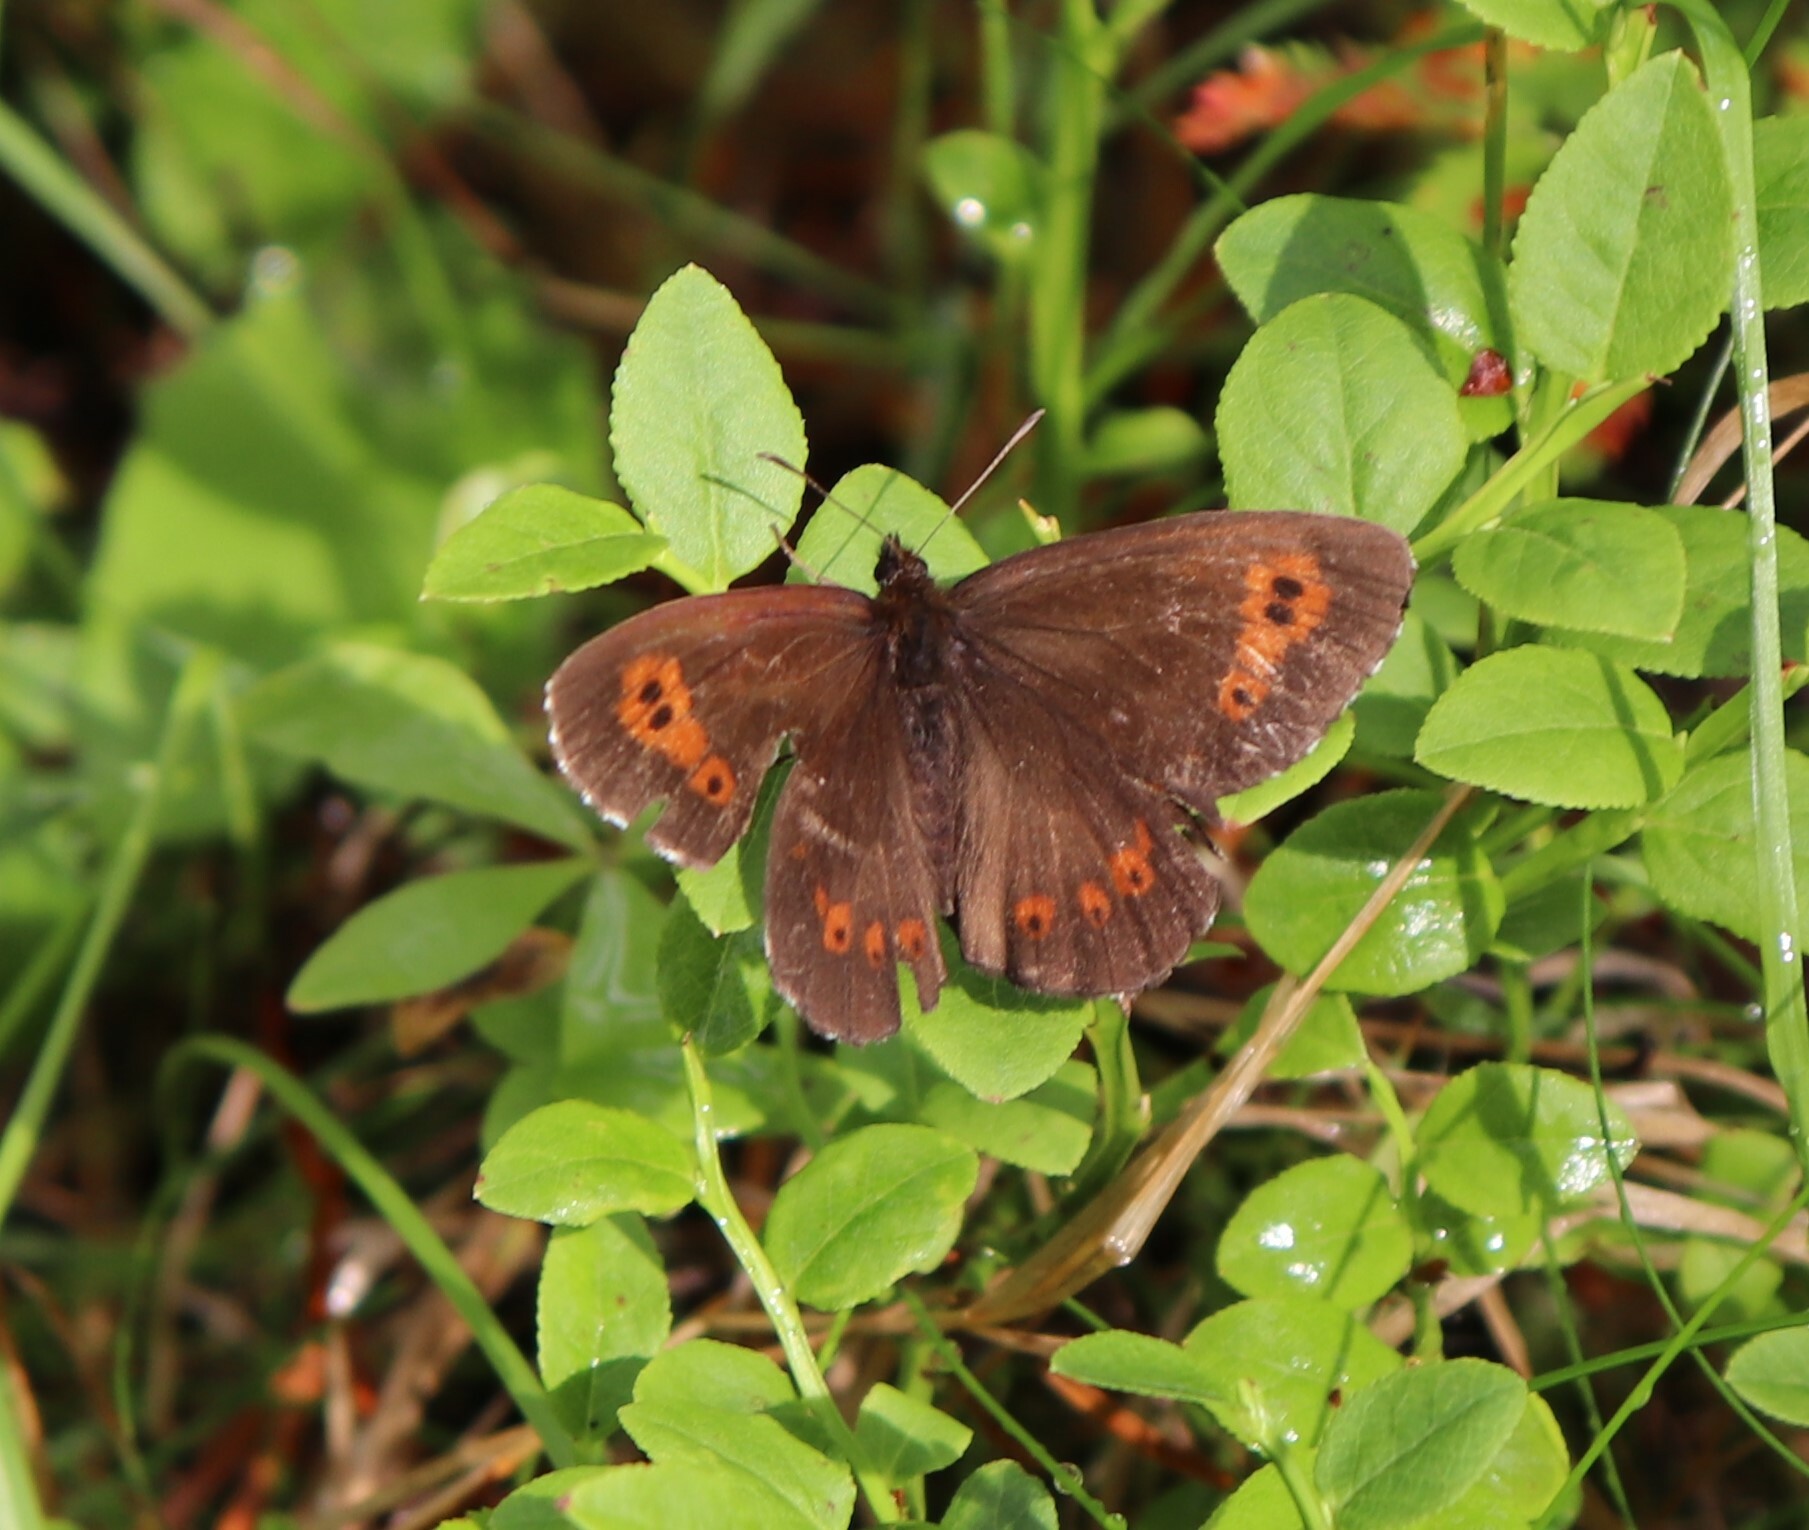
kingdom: Animalia
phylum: Arthropoda
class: Insecta
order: Lepidoptera
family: Nymphalidae
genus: Erebia
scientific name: Erebia ligea
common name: Arran brown
